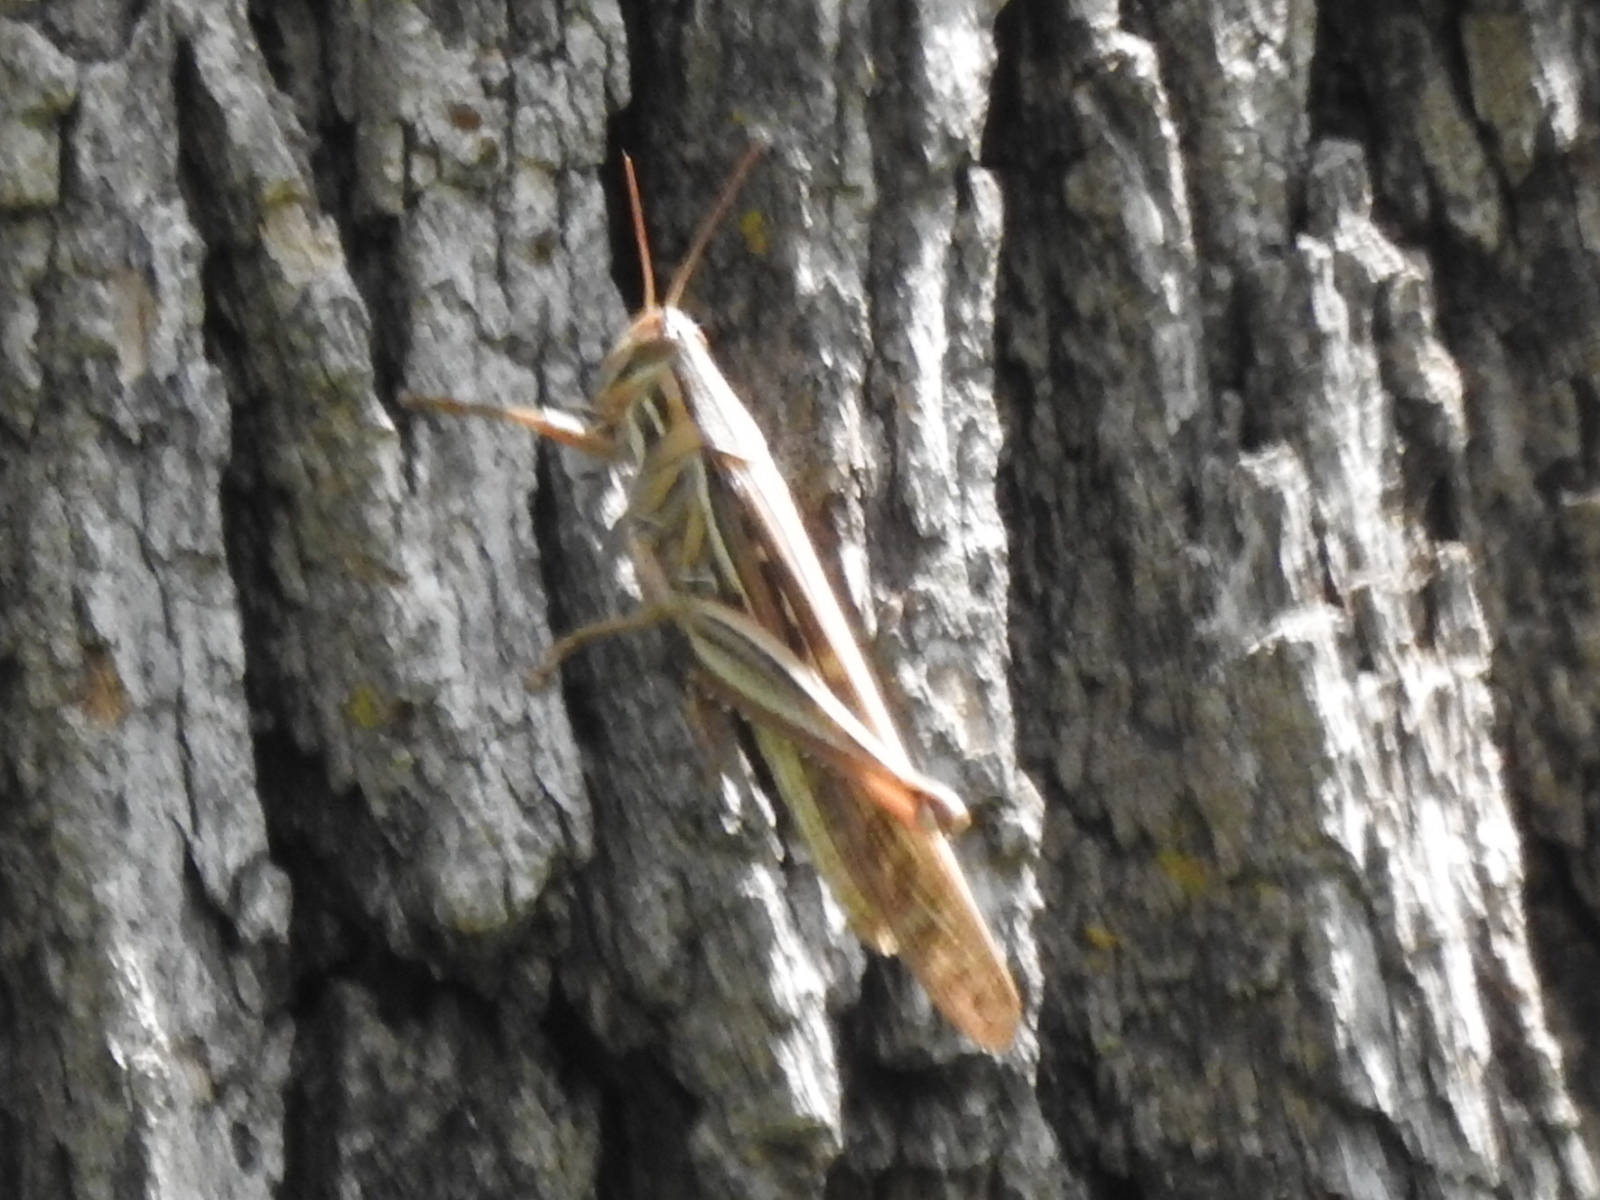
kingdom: Animalia
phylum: Arthropoda
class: Insecta
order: Orthoptera
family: Acrididae
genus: Schistocerca
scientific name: Schistocerca americana
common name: American bird locust
